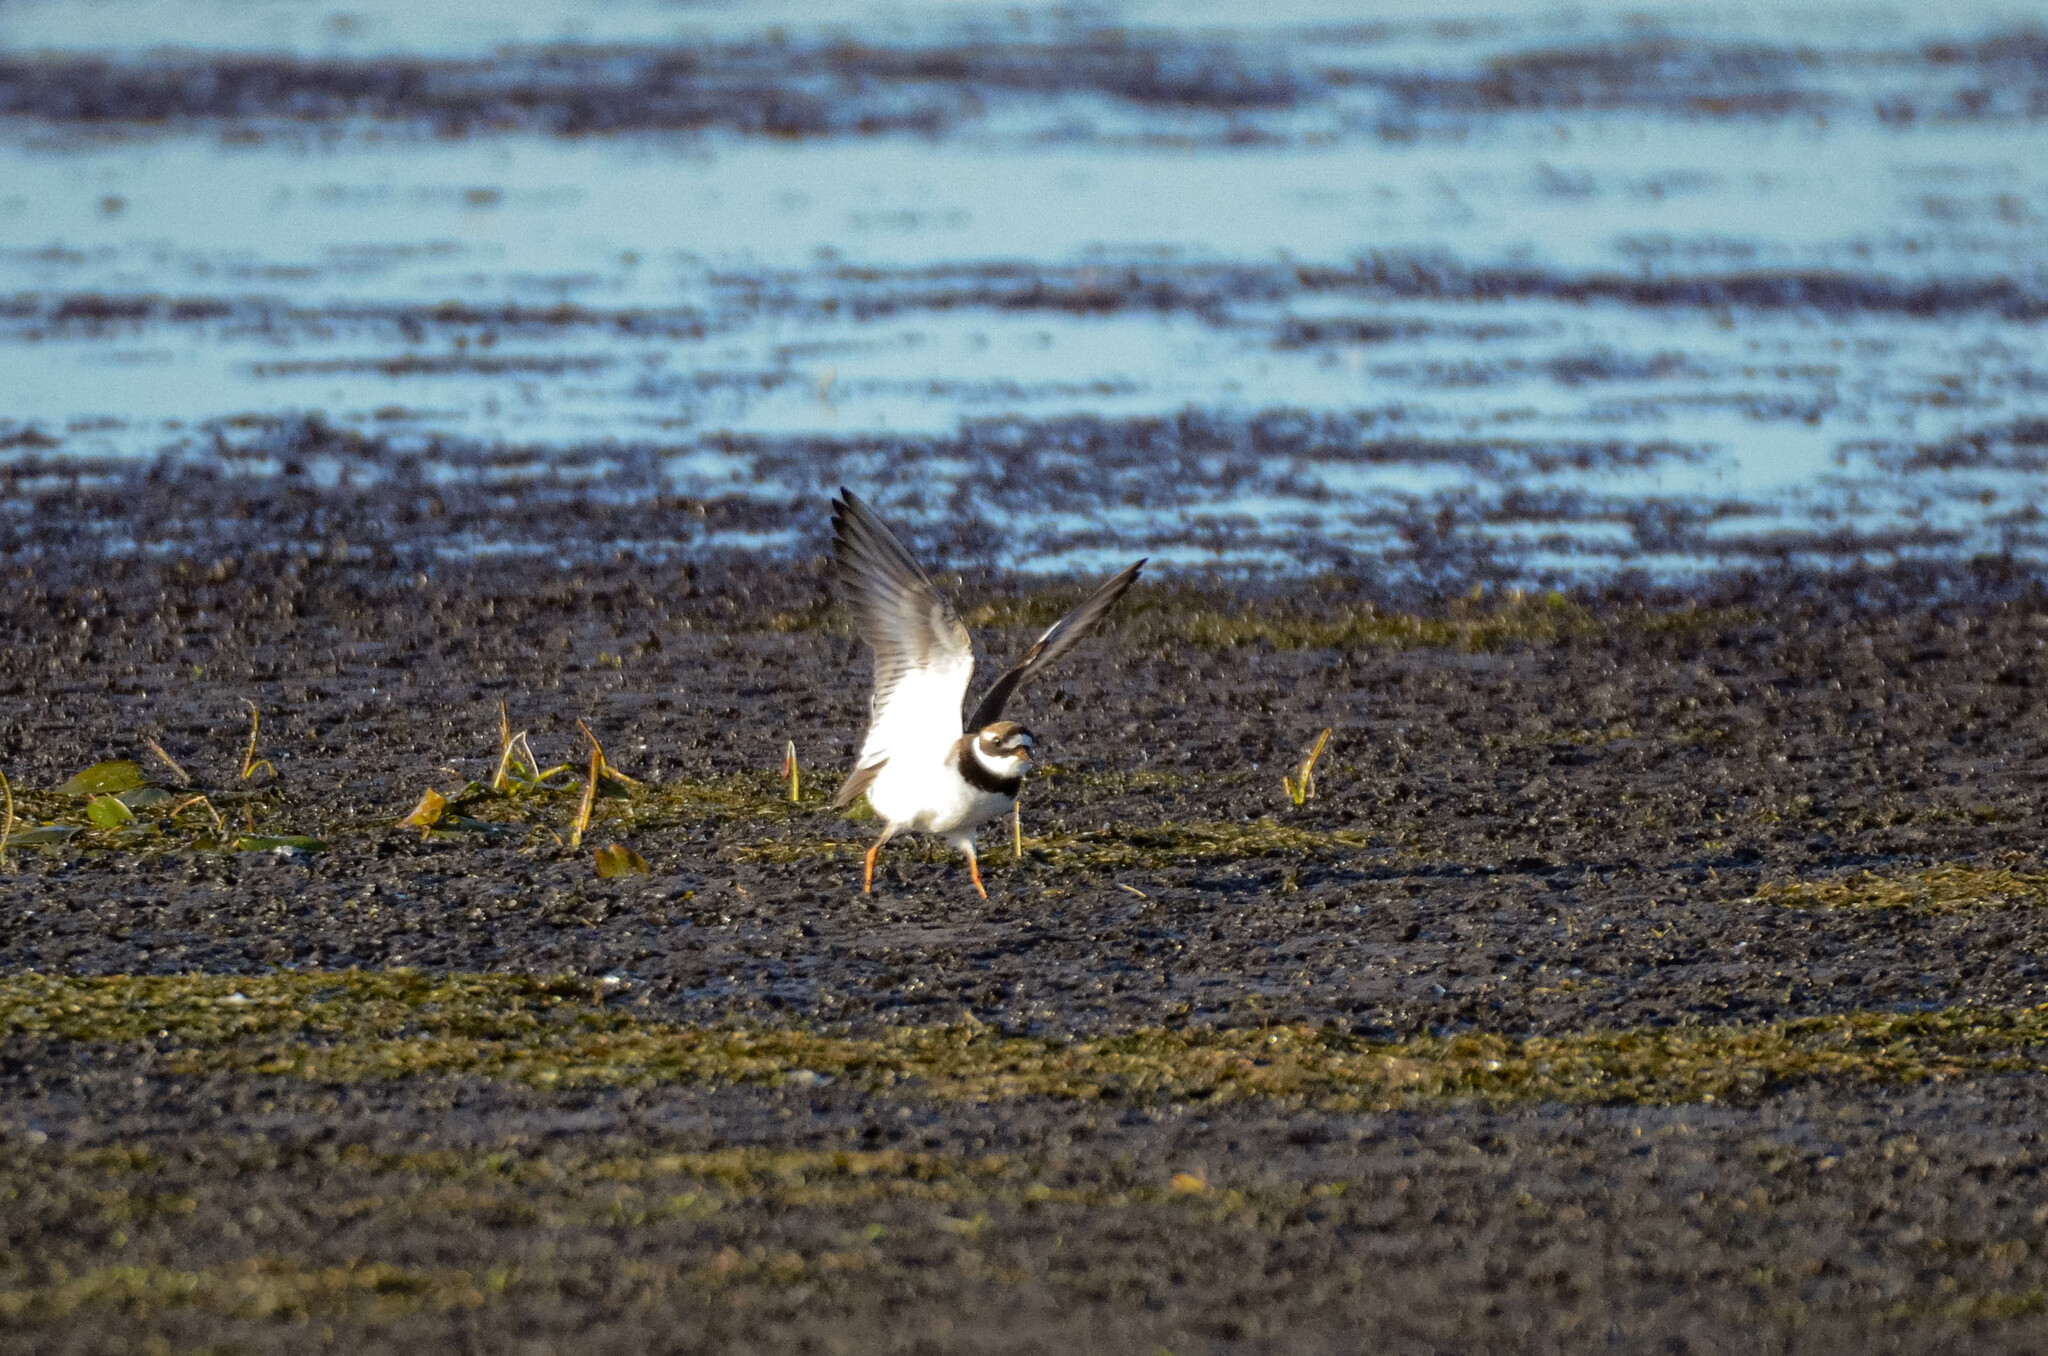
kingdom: Animalia
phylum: Chordata
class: Aves
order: Charadriiformes
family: Charadriidae
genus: Charadrius
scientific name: Charadrius hiaticula
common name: Common ringed plover
